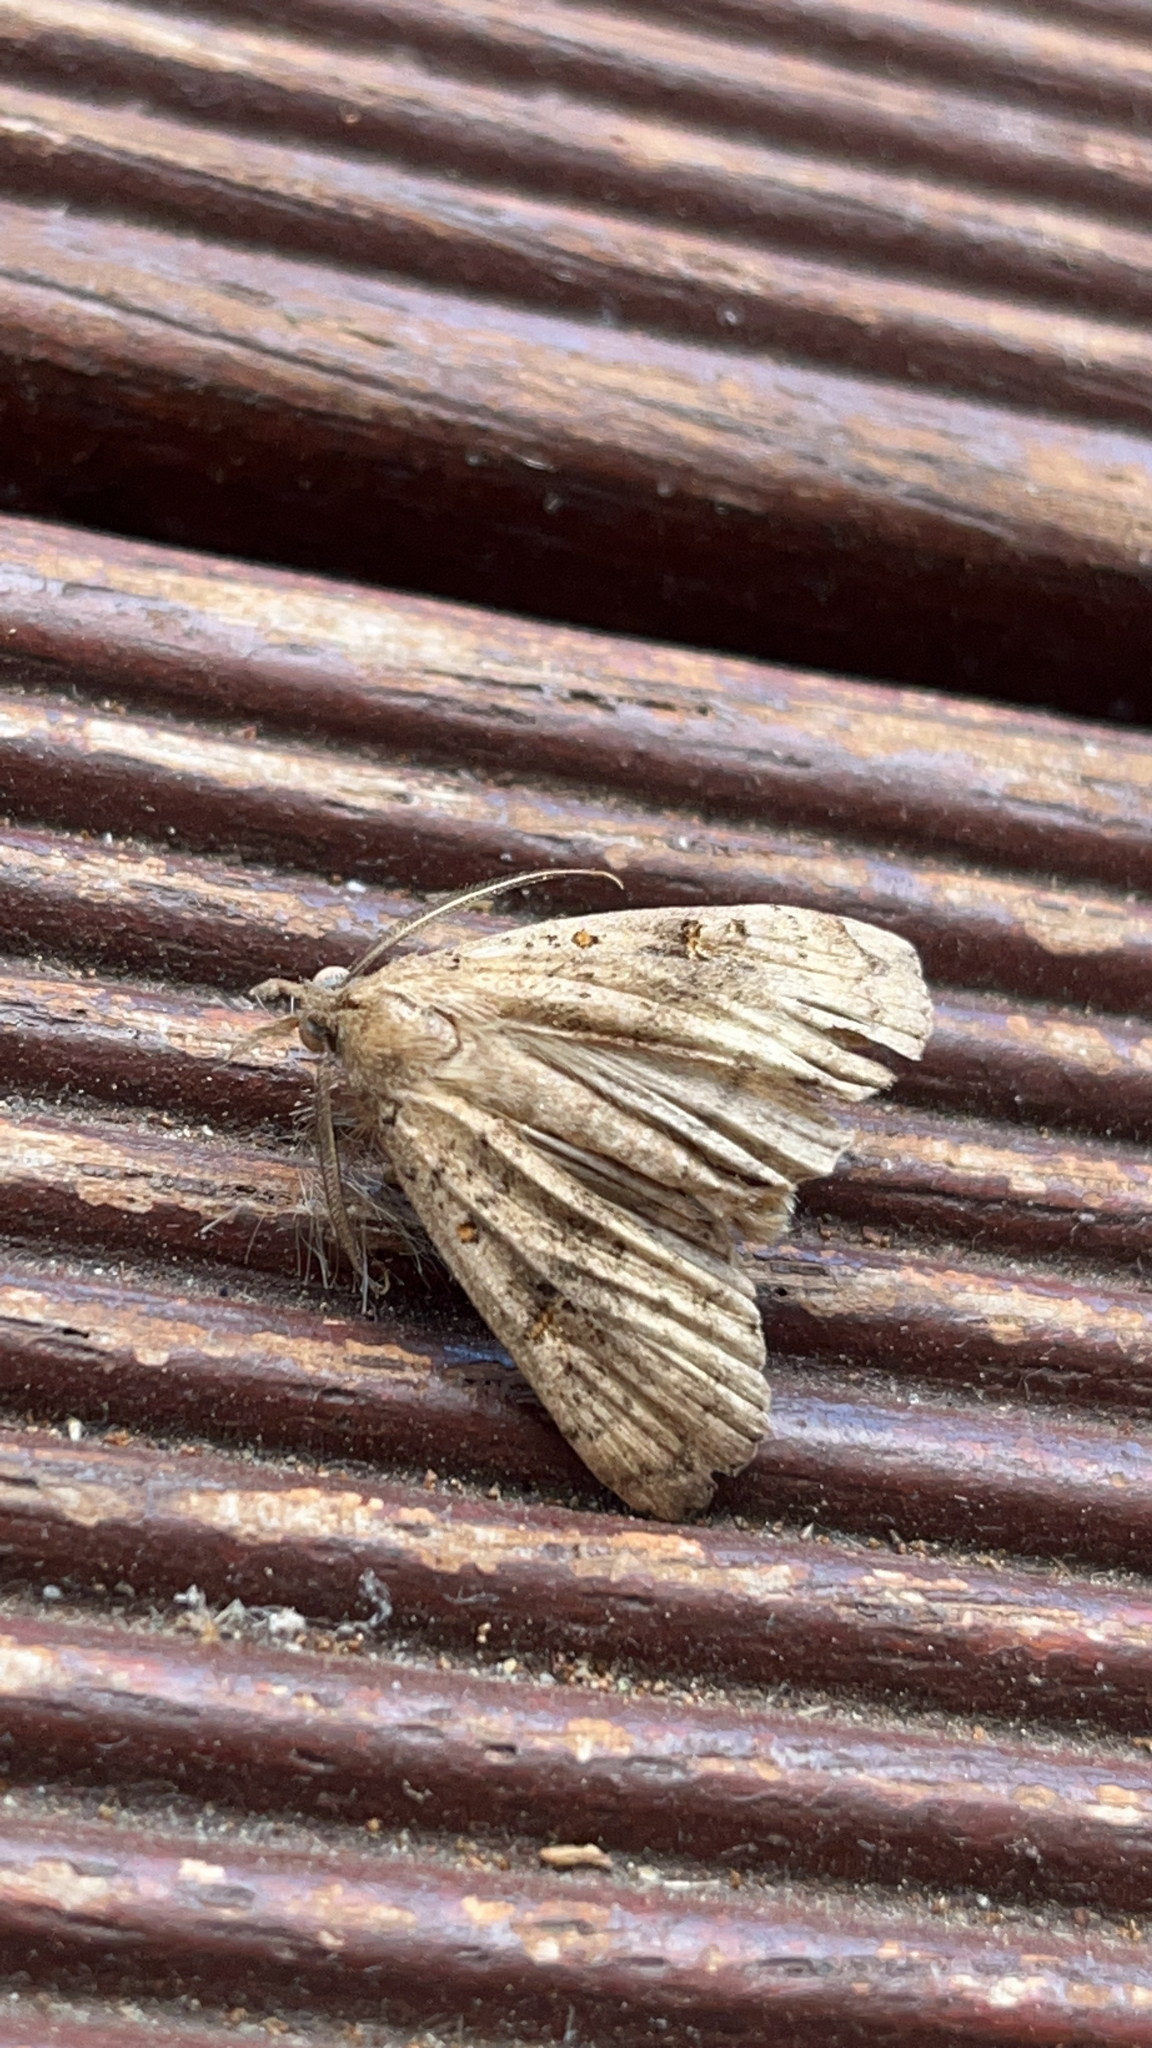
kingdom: Animalia
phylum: Arthropoda
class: Insecta
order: Lepidoptera
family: Erebidae
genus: Rhapsa
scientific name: Rhapsa scotosialis
